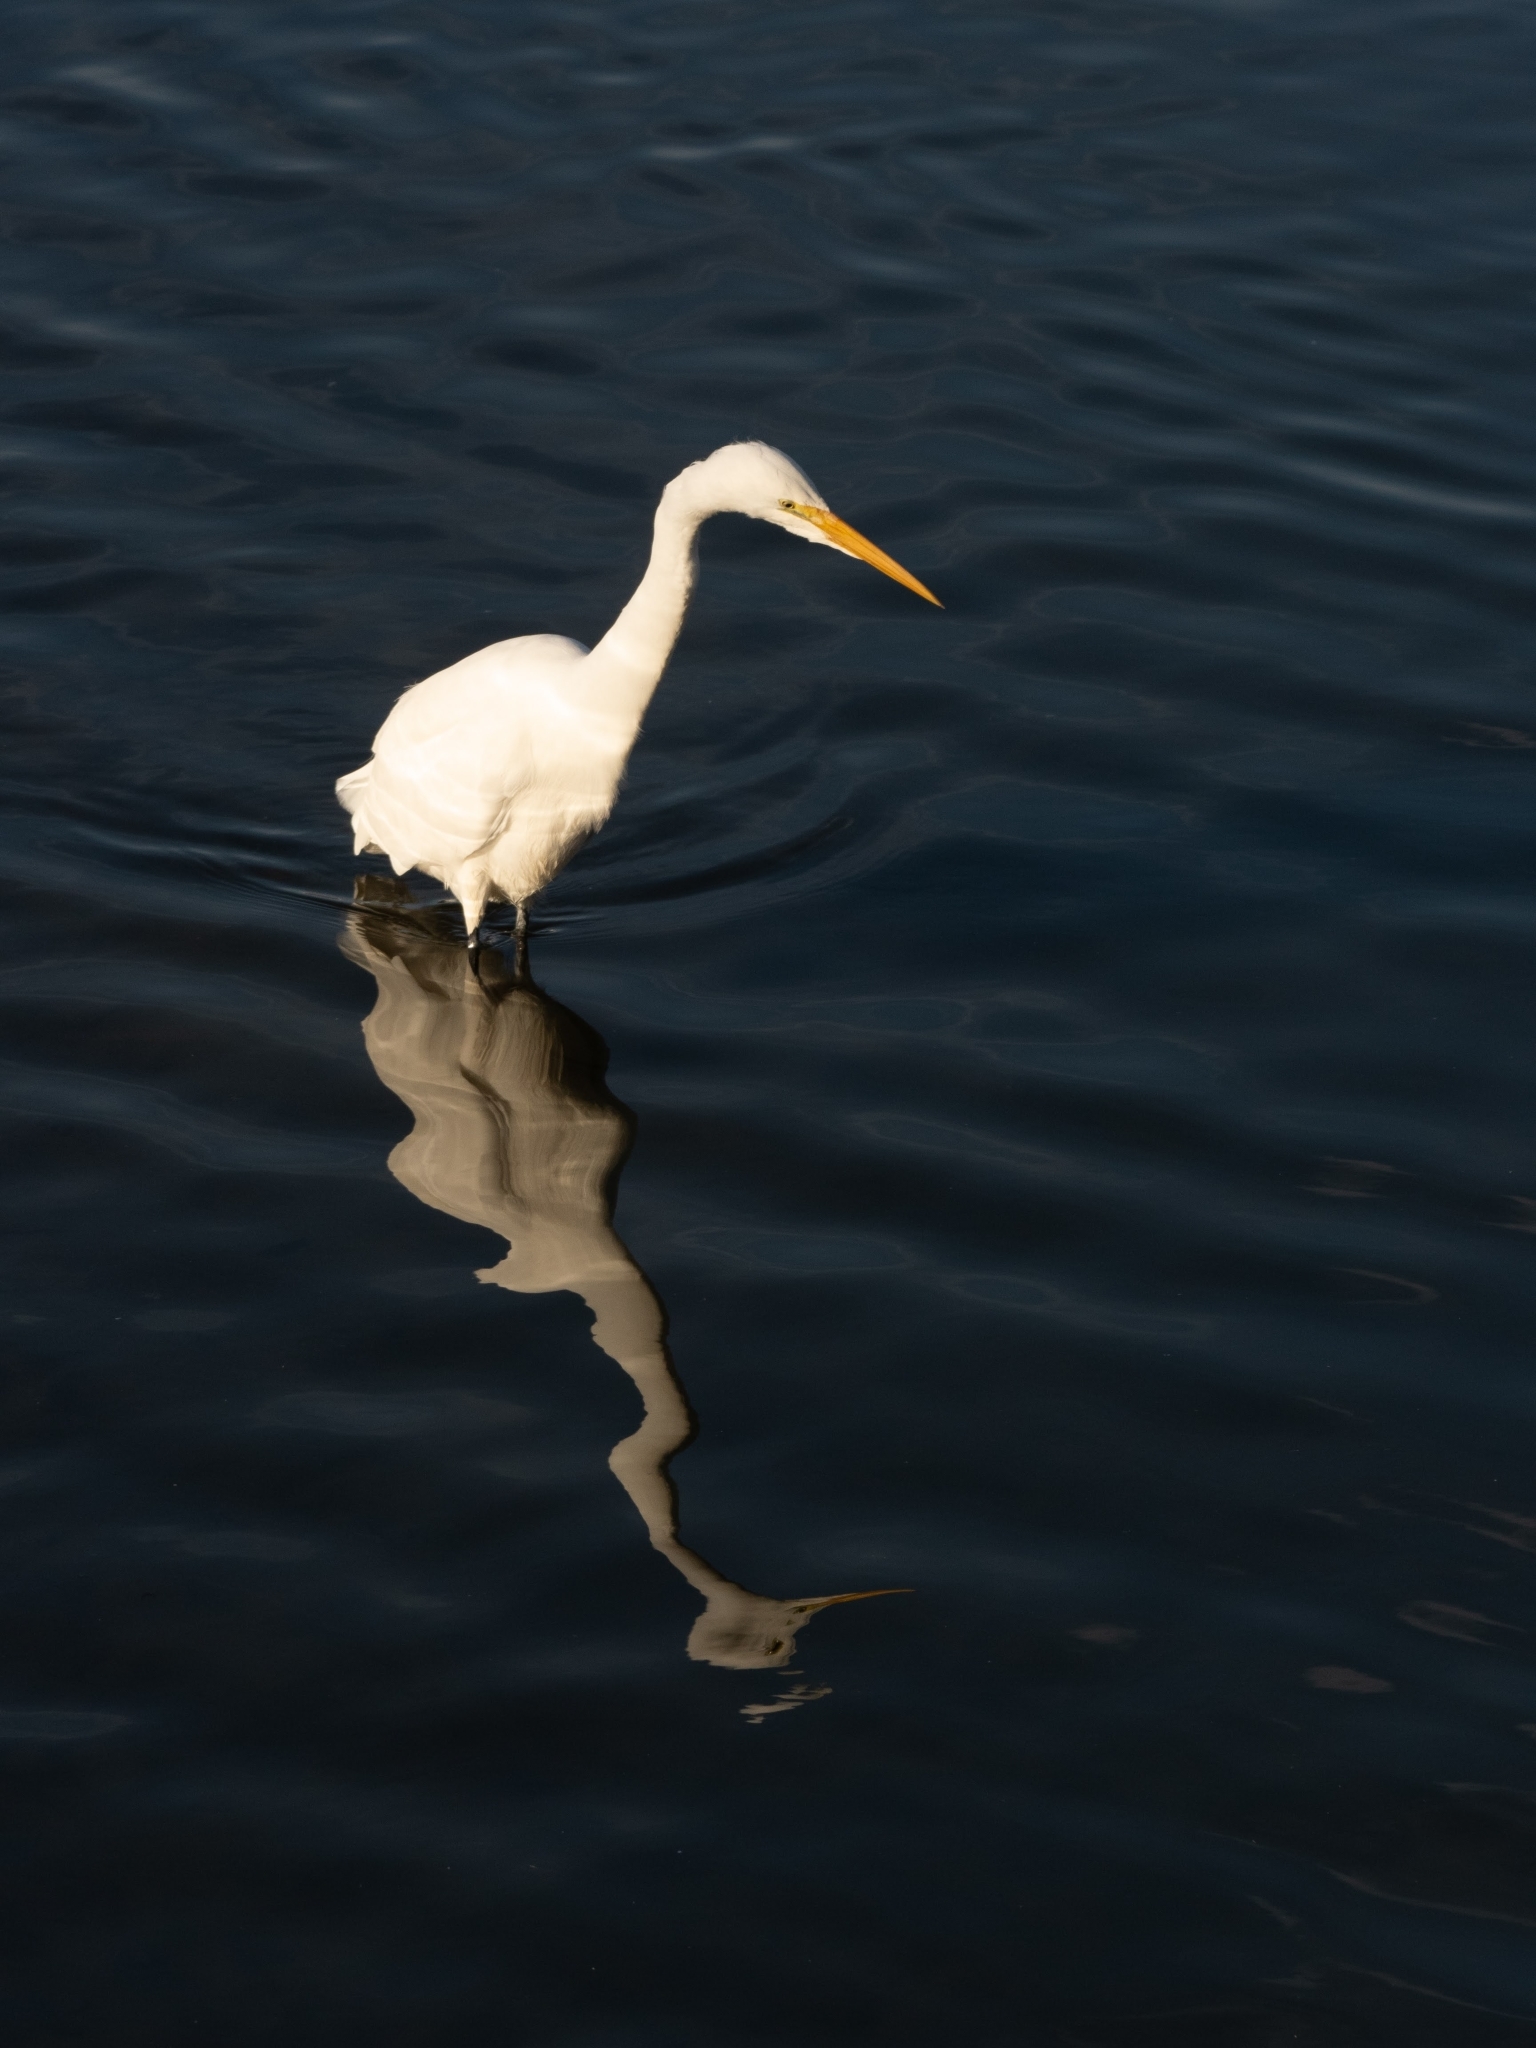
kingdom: Animalia
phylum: Chordata
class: Aves
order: Pelecaniformes
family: Ardeidae
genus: Ardea
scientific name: Ardea alba
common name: Great egret
